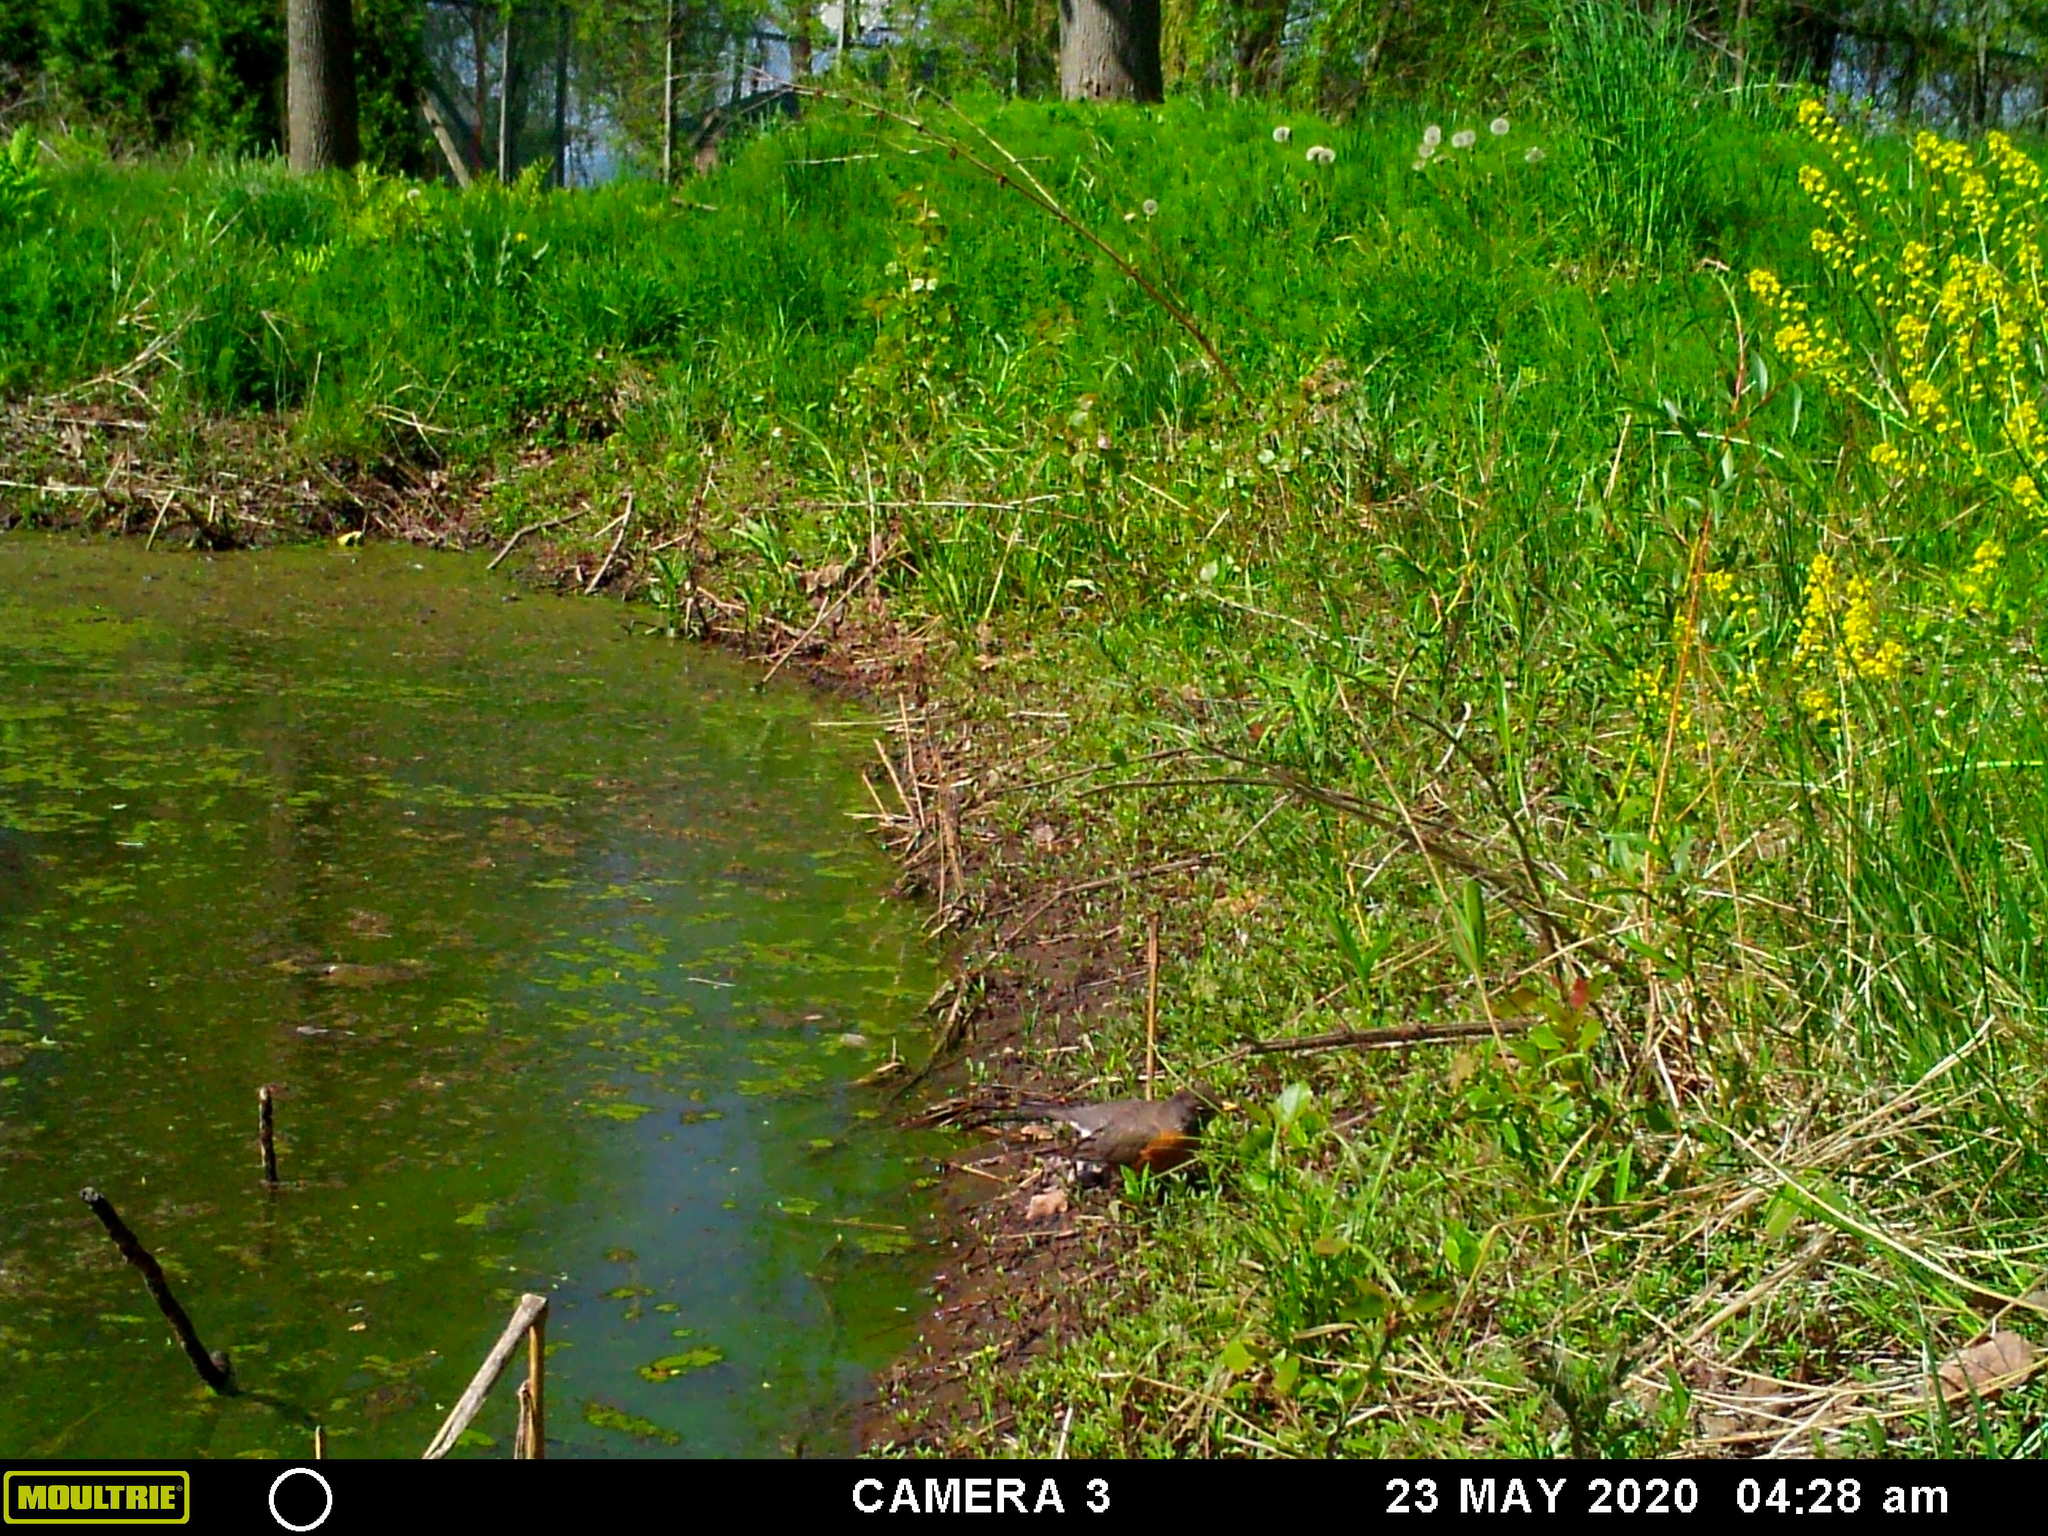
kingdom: Animalia
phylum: Chordata
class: Aves
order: Passeriformes
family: Turdidae
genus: Turdus
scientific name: Turdus migratorius
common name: American robin
